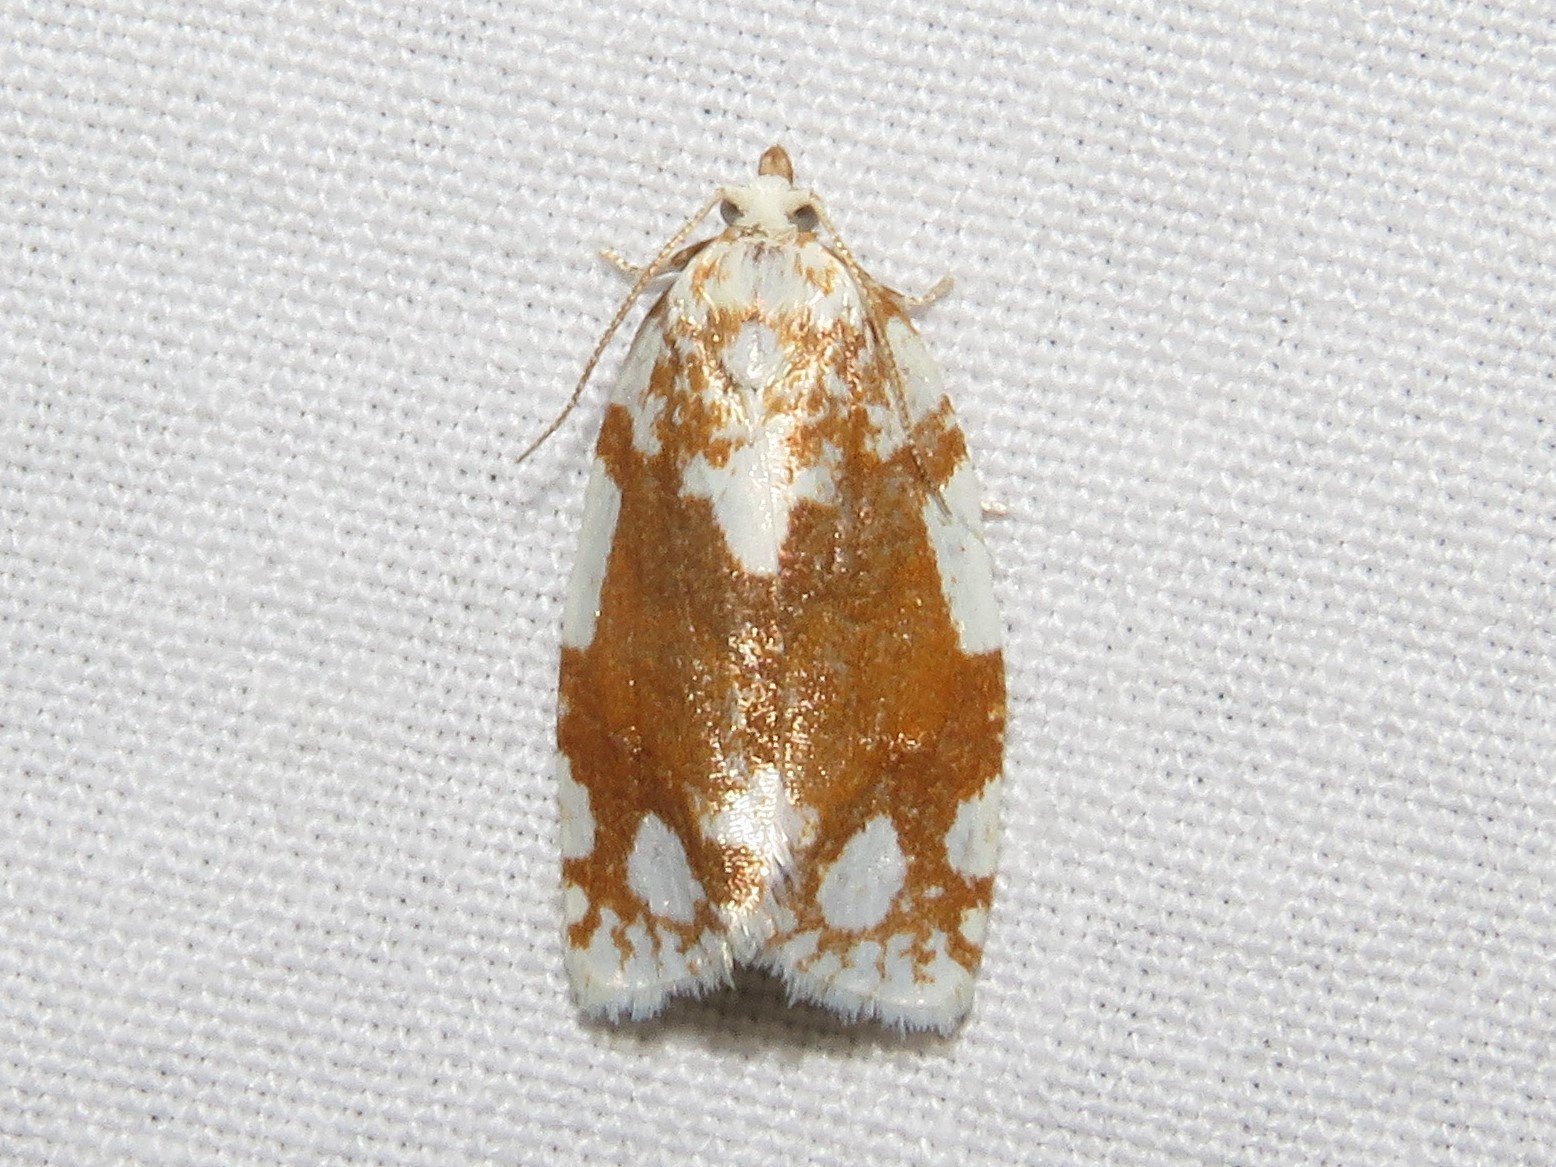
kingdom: Animalia
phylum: Arthropoda
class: Insecta
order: Lepidoptera
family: Tortricidae
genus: Argyrotaenia
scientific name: Argyrotaenia alisellana
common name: White-spotted leafroller moth
